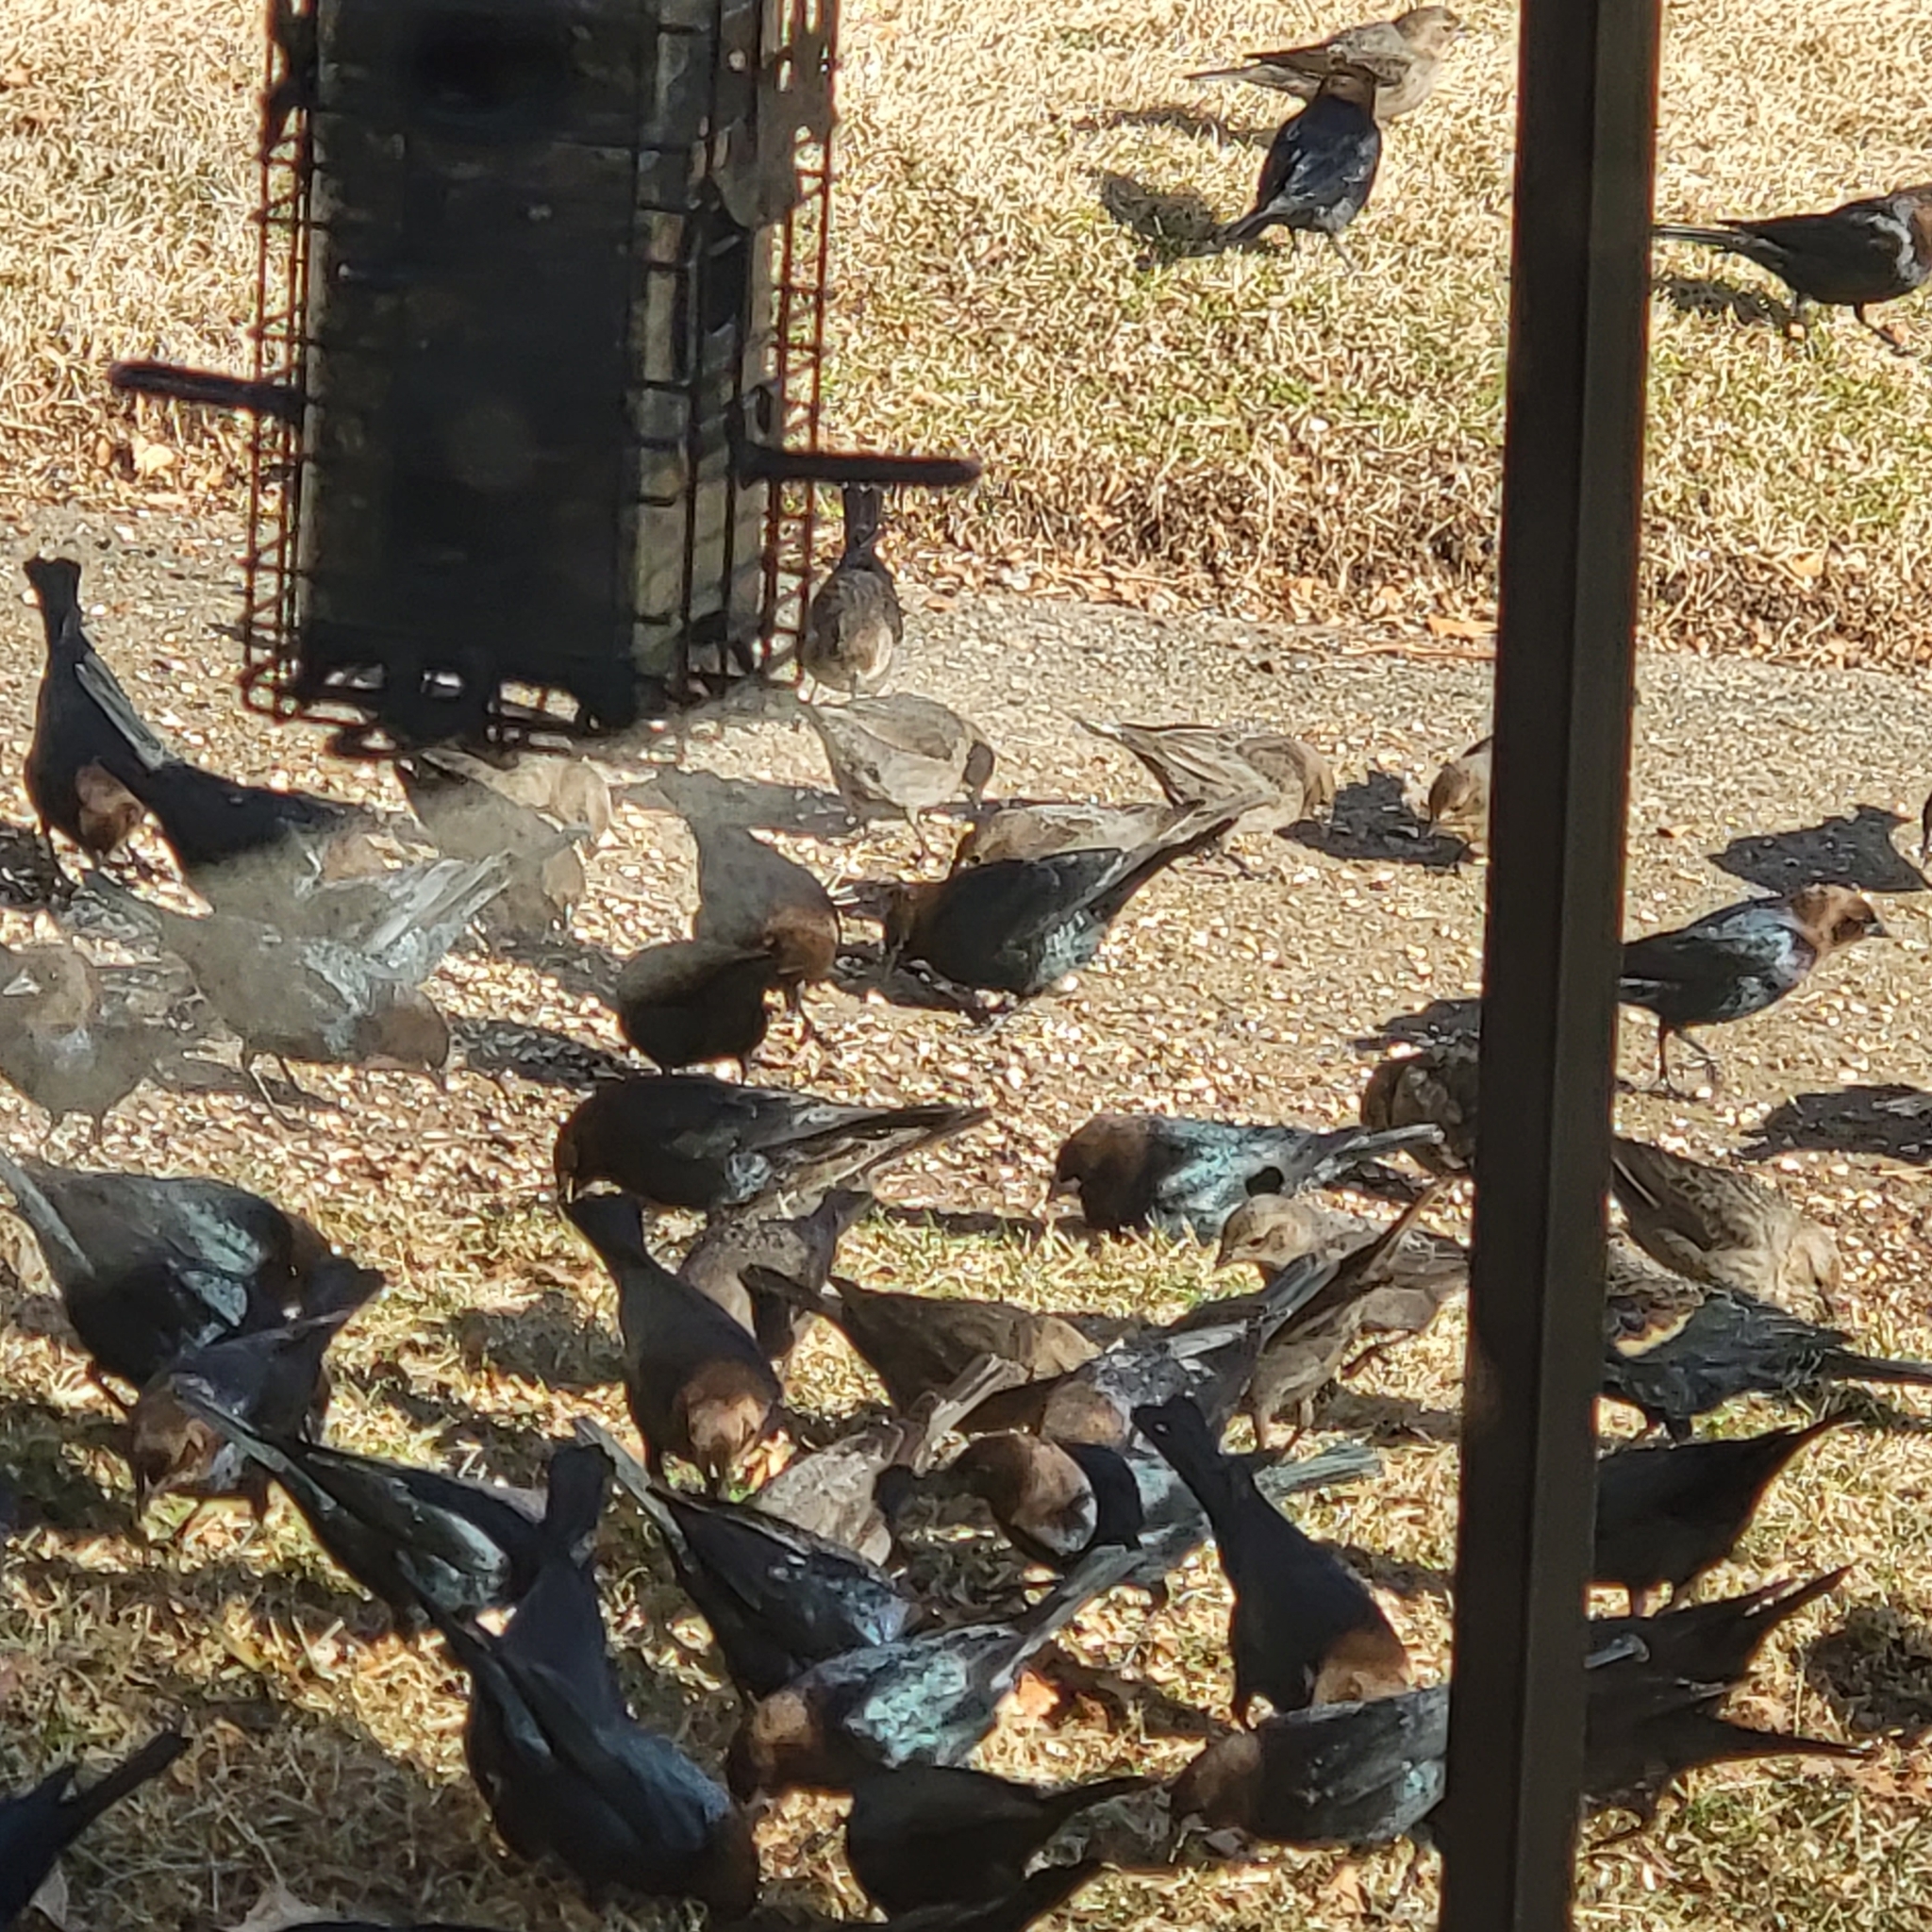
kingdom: Animalia
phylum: Chordata
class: Aves
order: Passeriformes
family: Icteridae
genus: Molothrus
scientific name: Molothrus ater
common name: Brown-headed cowbird
